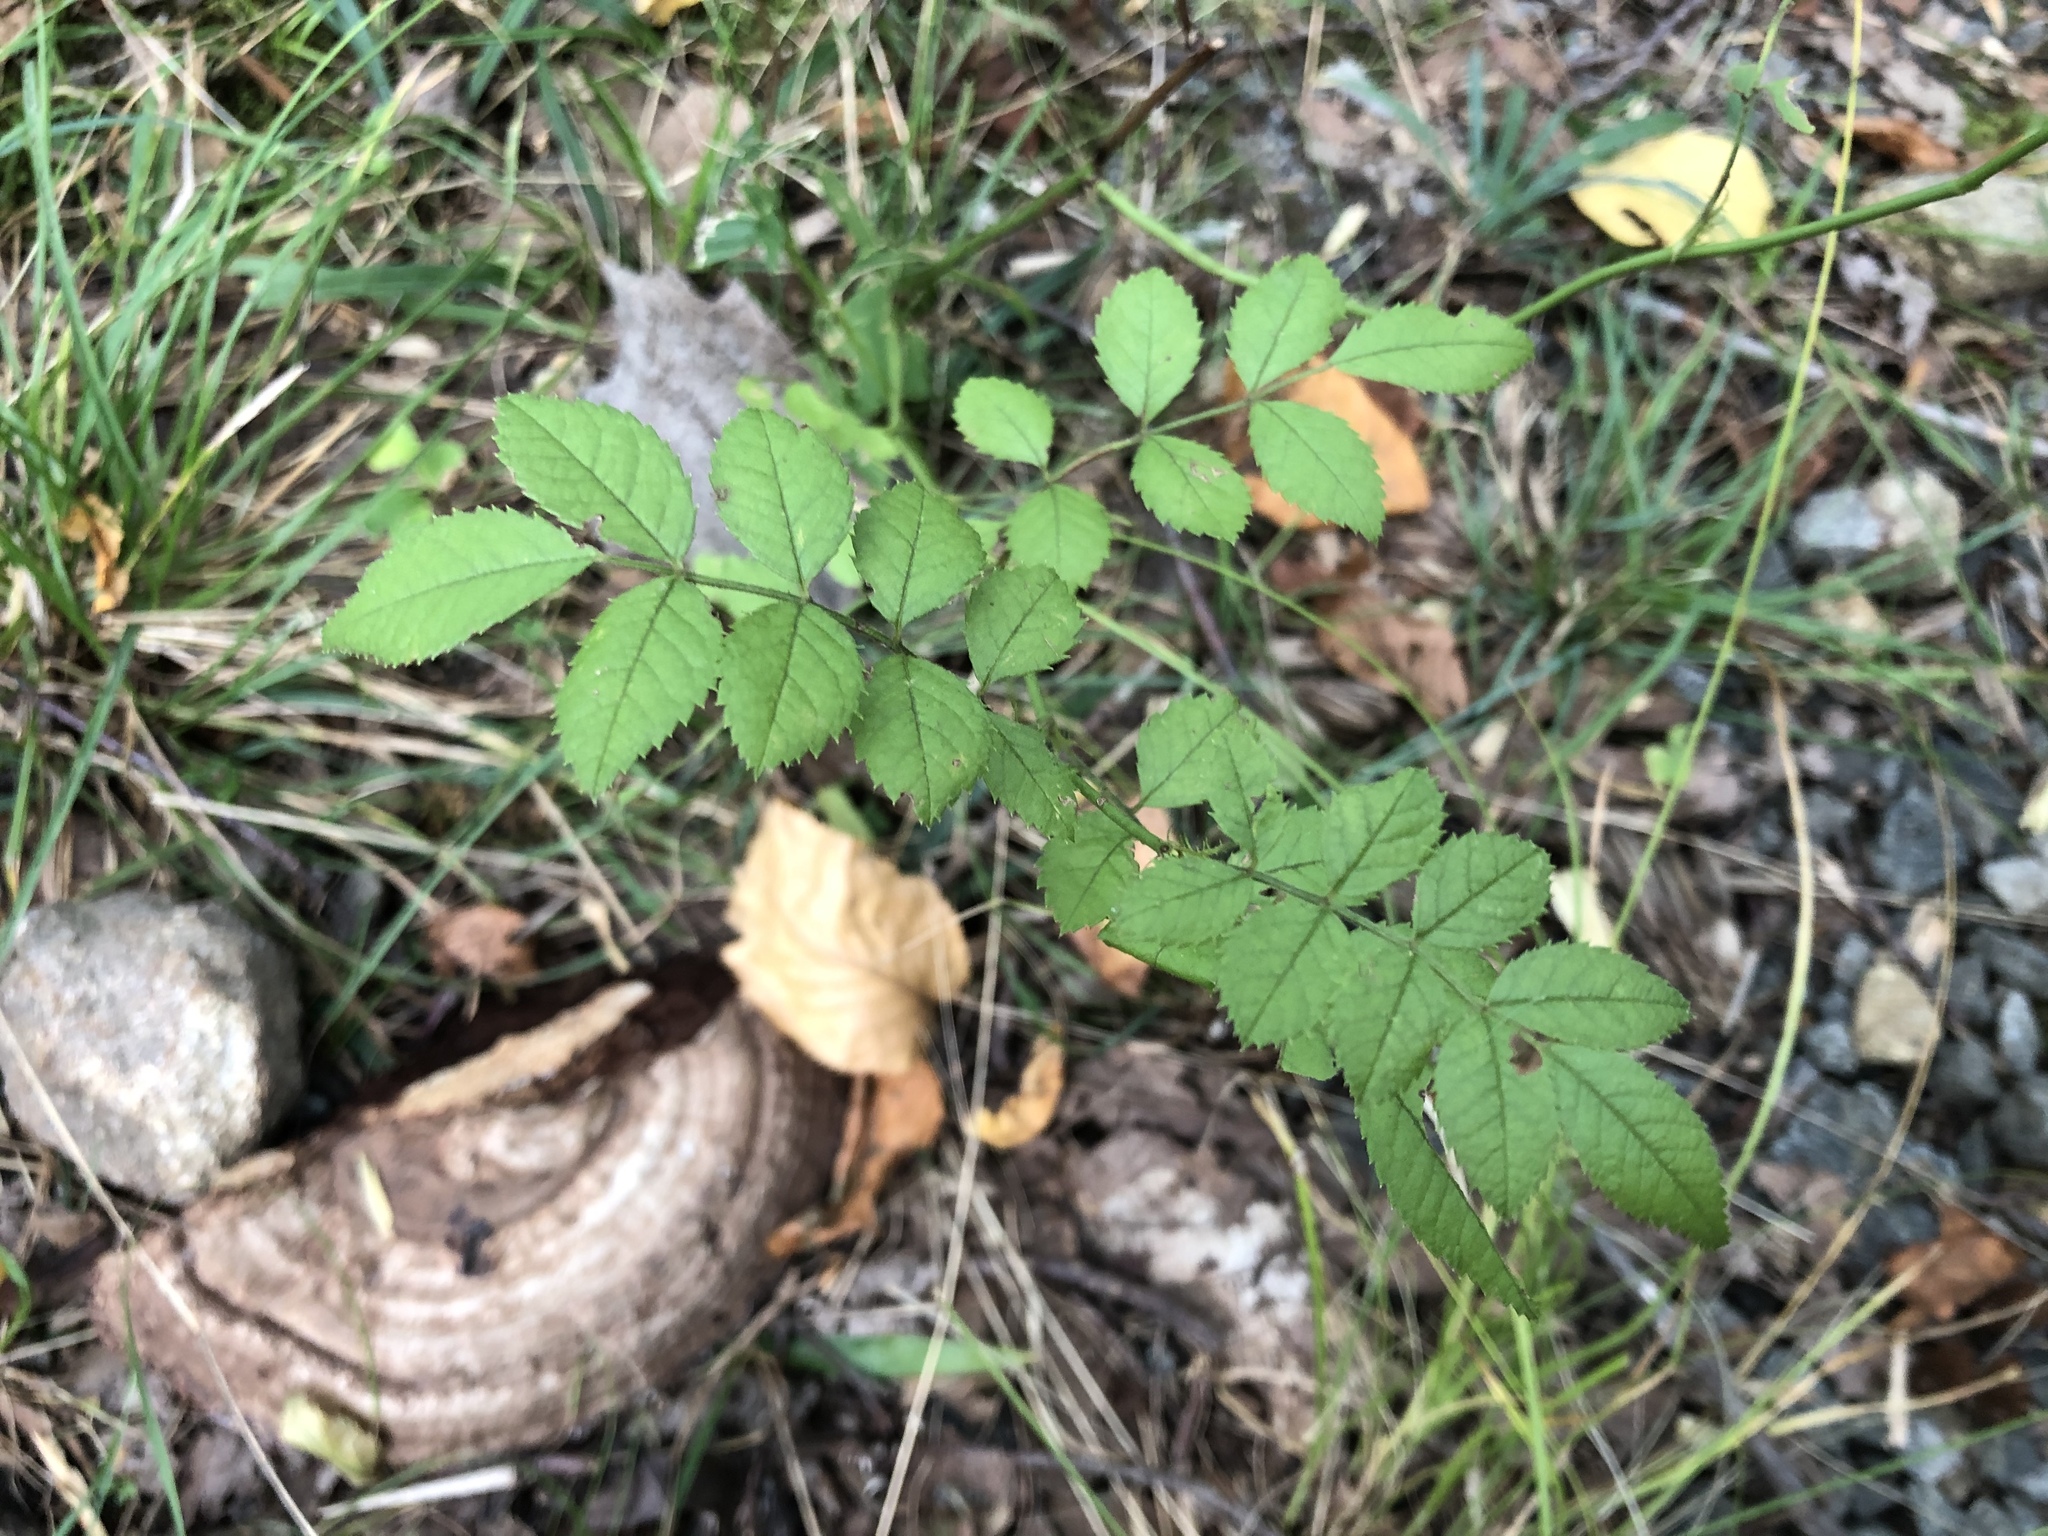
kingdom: Plantae
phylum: Tracheophyta
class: Magnoliopsida
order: Rosales
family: Rosaceae
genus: Rosa
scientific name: Rosa multiflora
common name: Multiflora rose
